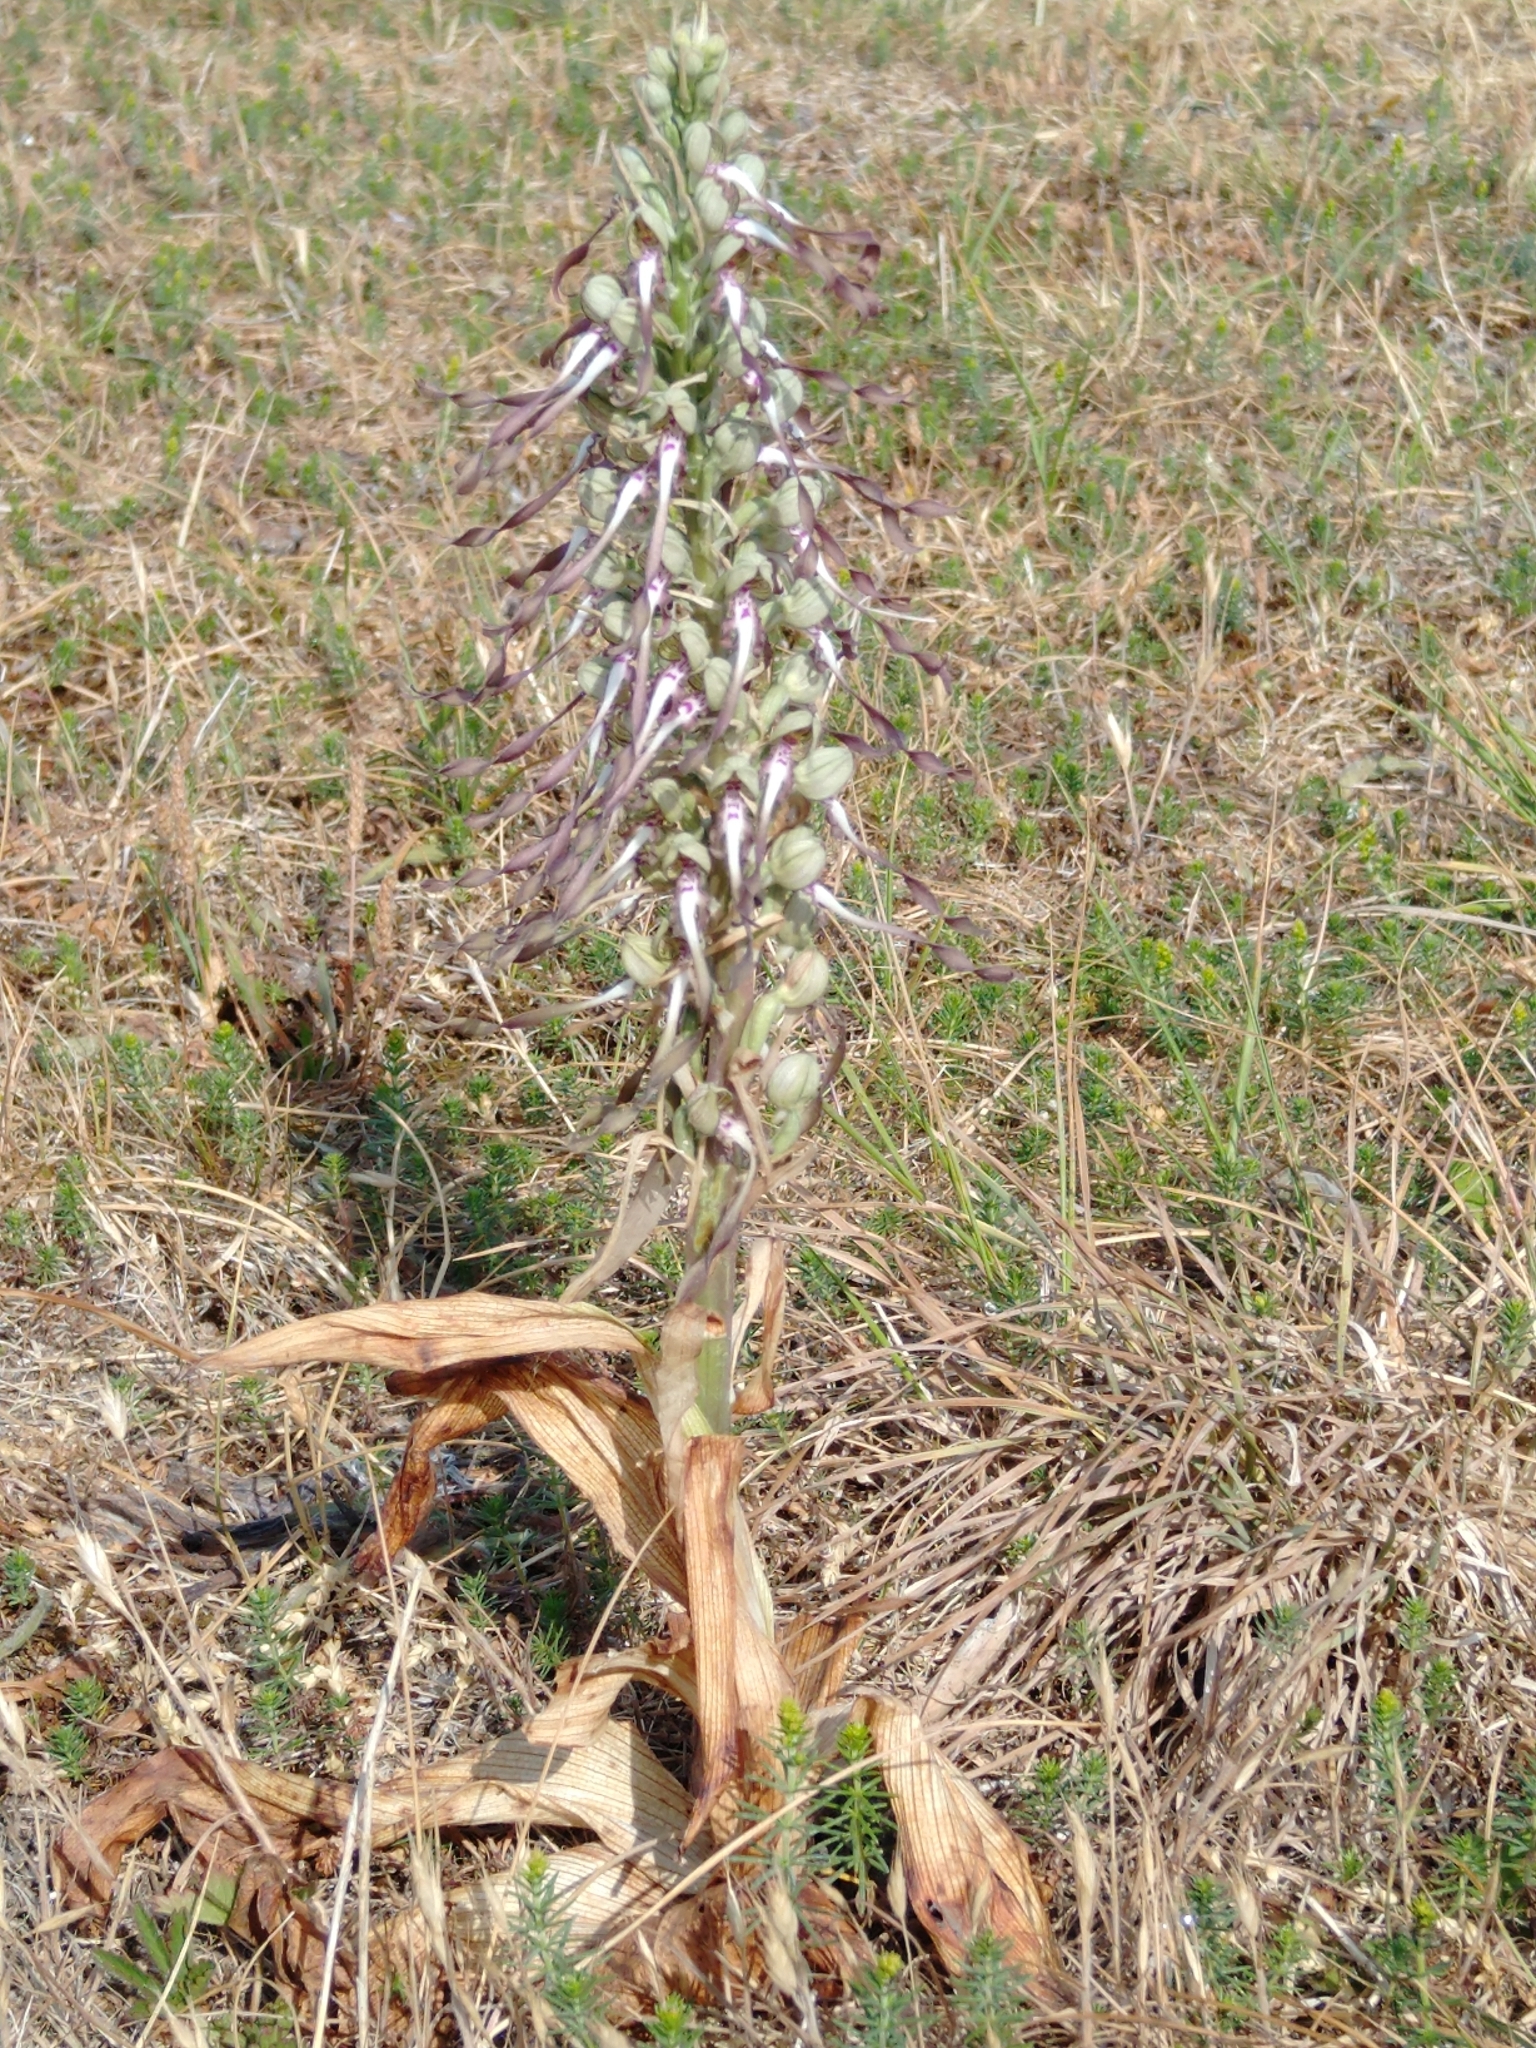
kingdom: Plantae
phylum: Tracheophyta
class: Liliopsida
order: Asparagales
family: Orchidaceae
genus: Himantoglossum
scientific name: Himantoglossum hircinum
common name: Lizard orchid
